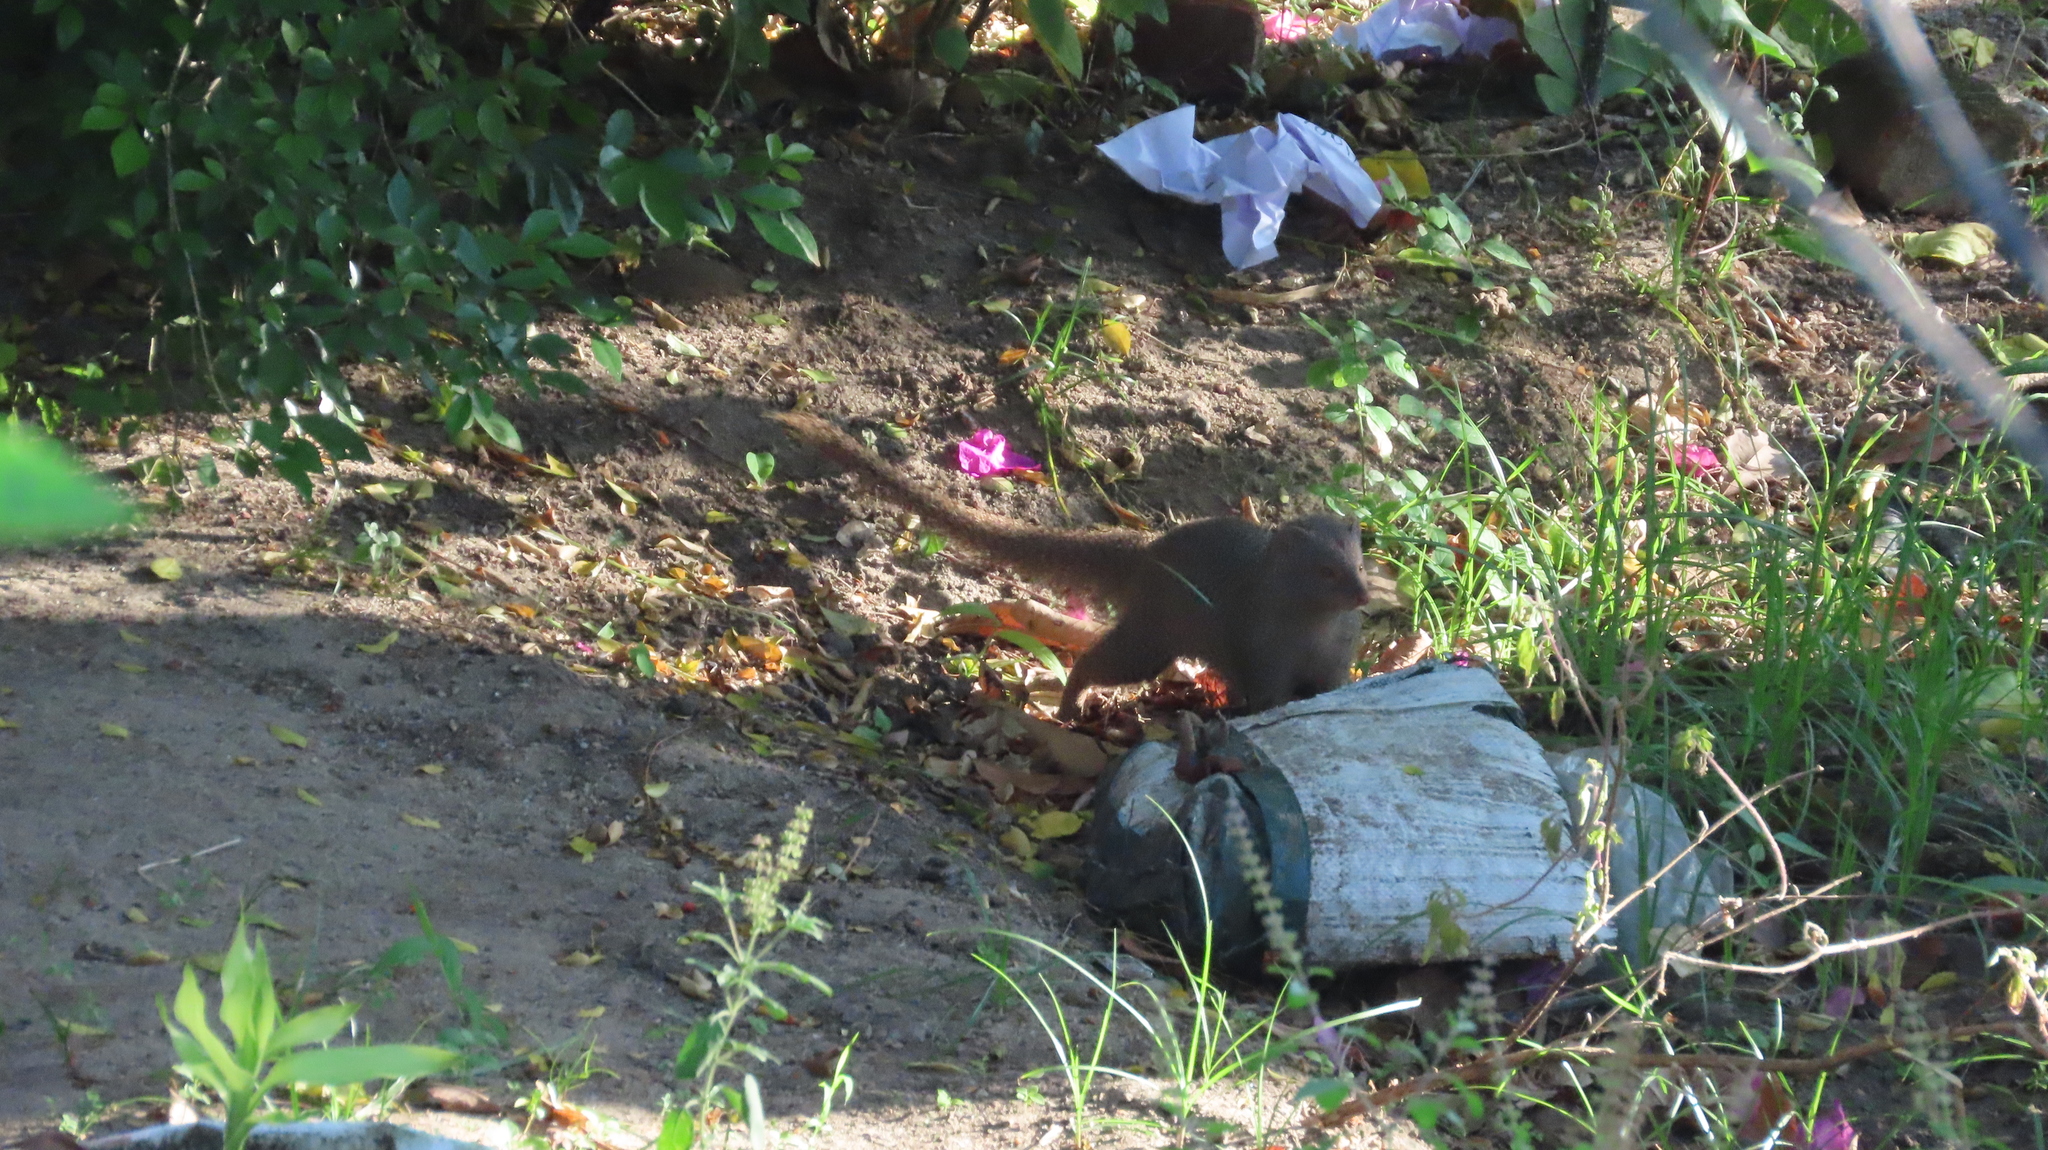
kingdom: Animalia
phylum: Chordata
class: Mammalia
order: Carnivora
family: Herpestidae
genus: Herpestes
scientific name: Herpestes edwardsi
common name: Indian gray mongoose
